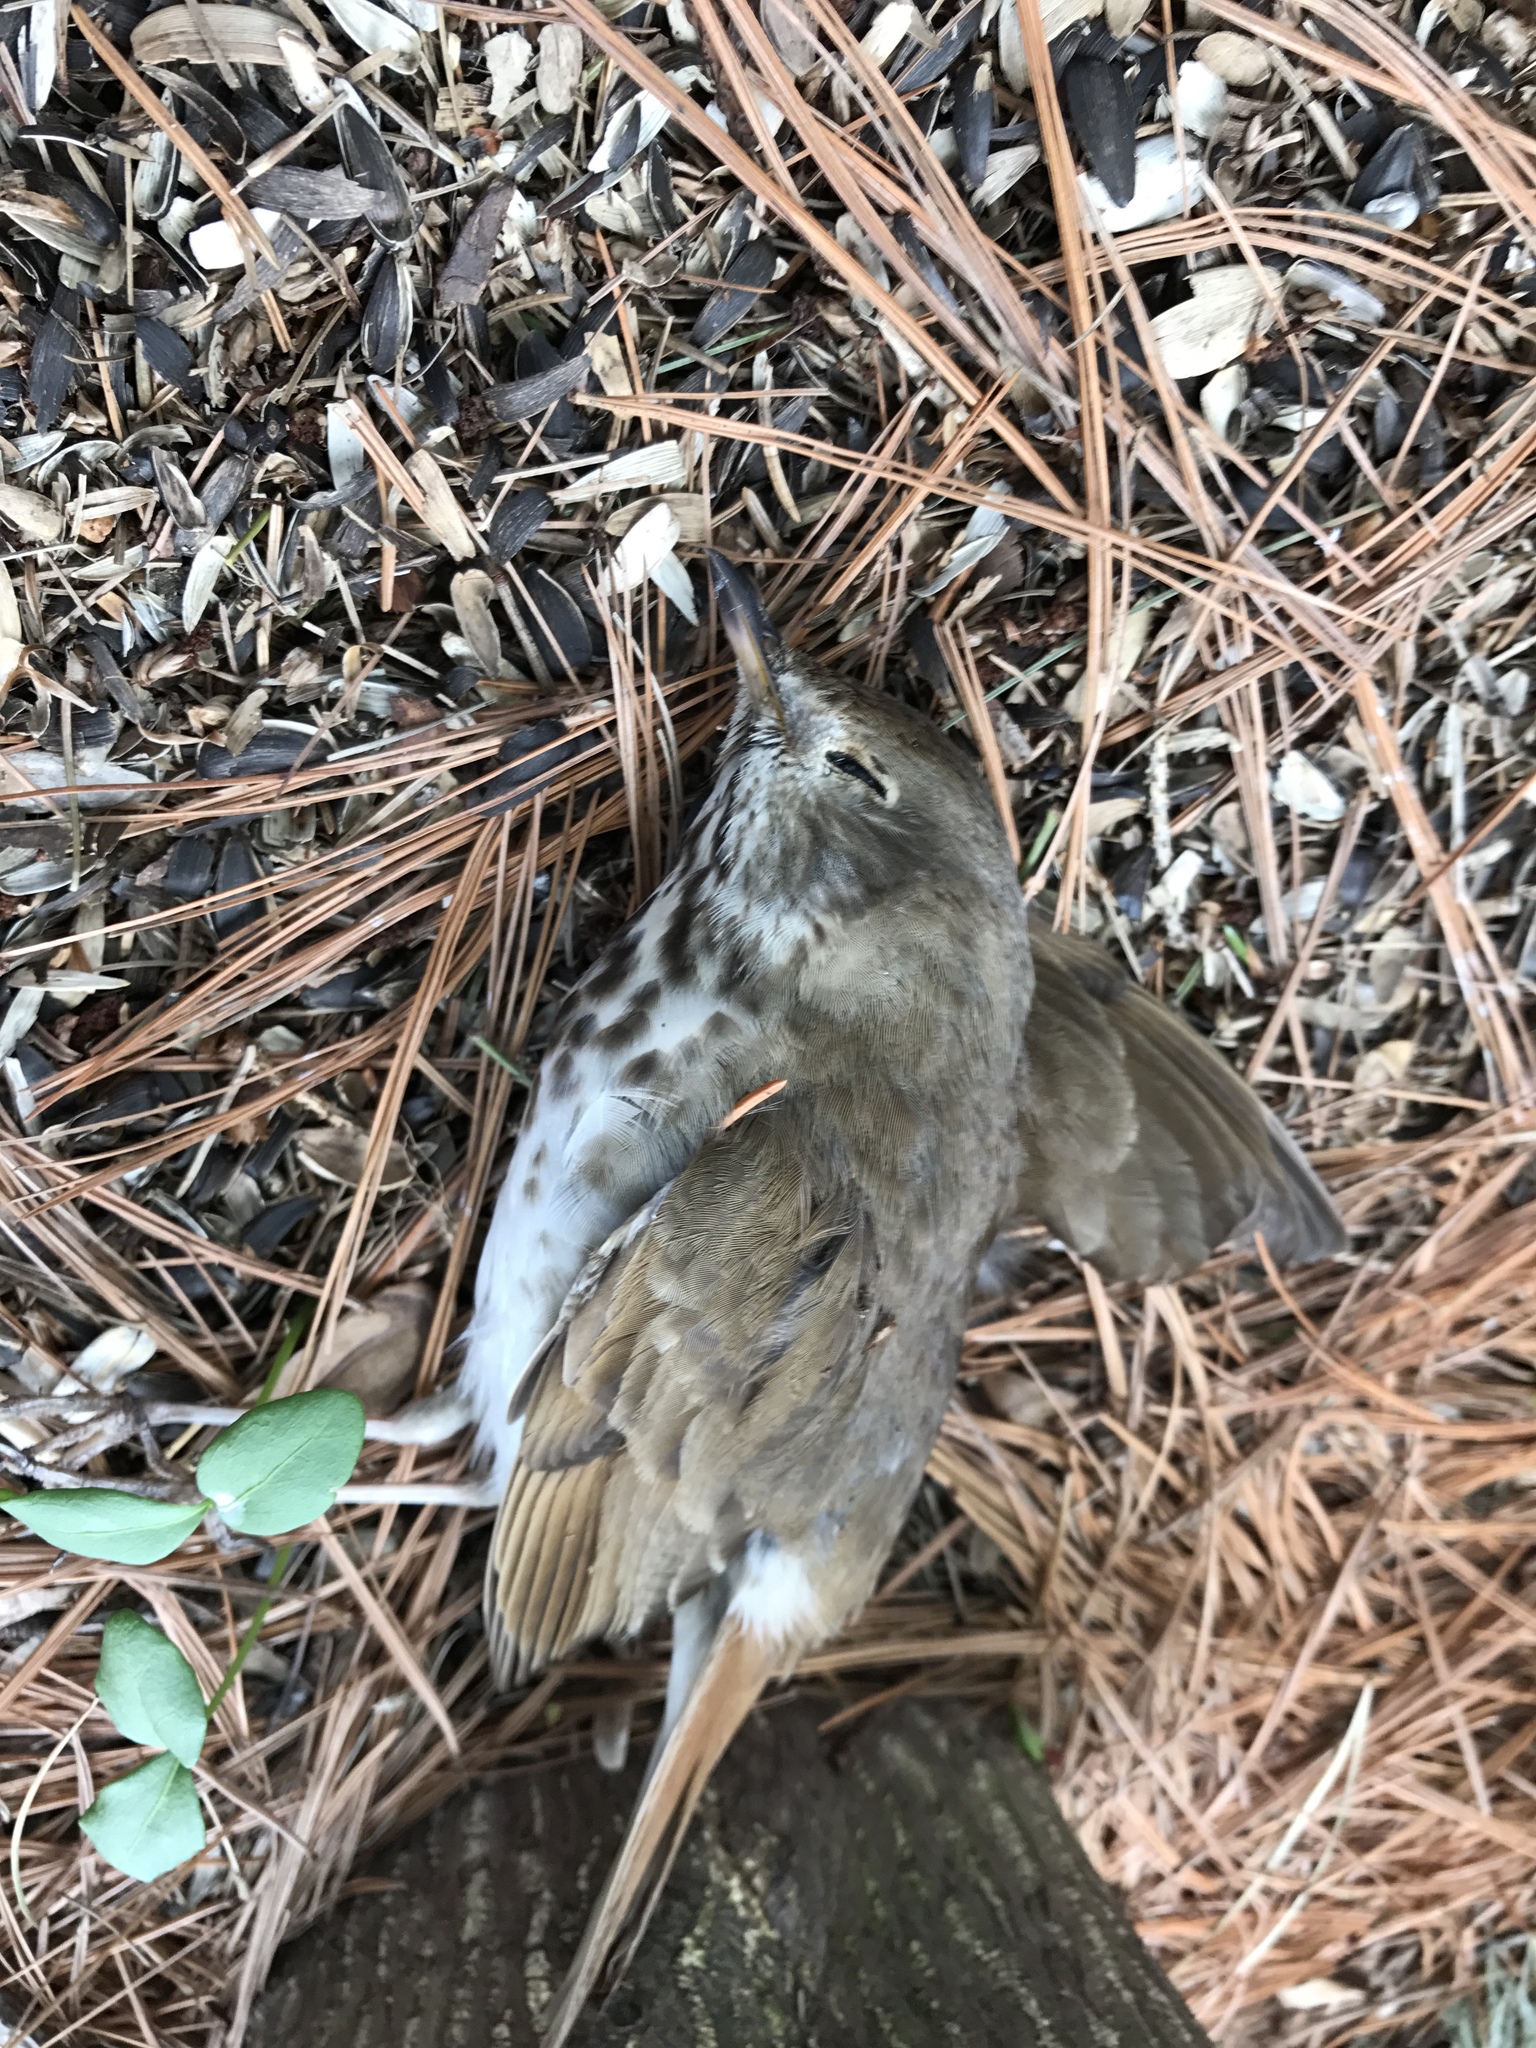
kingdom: Animalia
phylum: Chordata
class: Aves
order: Passeriformes
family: Turdidae
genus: Catharus
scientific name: Catharus guttatus
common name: Hermit thrush
